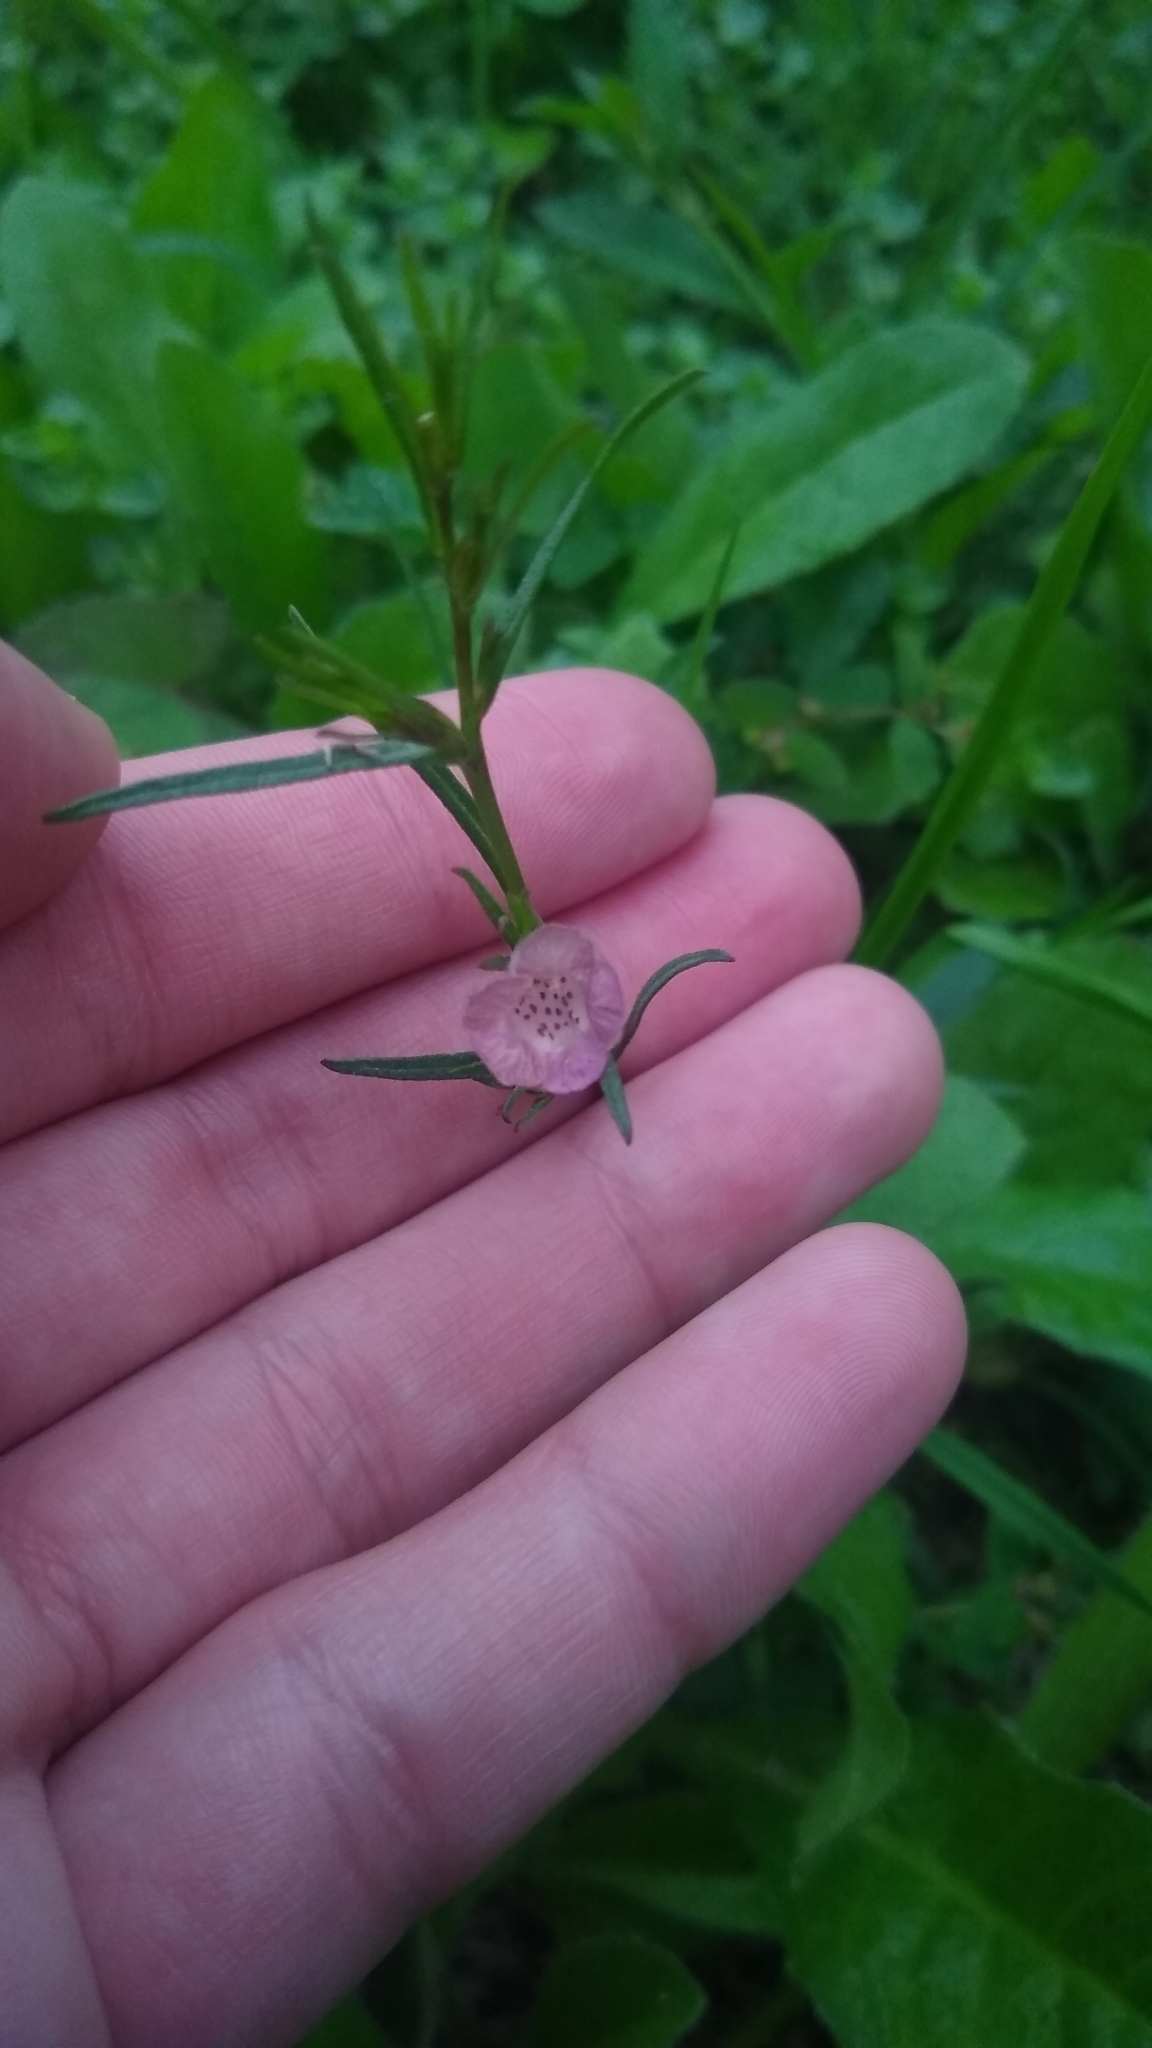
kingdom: Plantae
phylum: Tracheophyta
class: Magnoliopsida
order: Lamiales
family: Orobanchaceae
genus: Agalinis
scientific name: Agalinis communis
